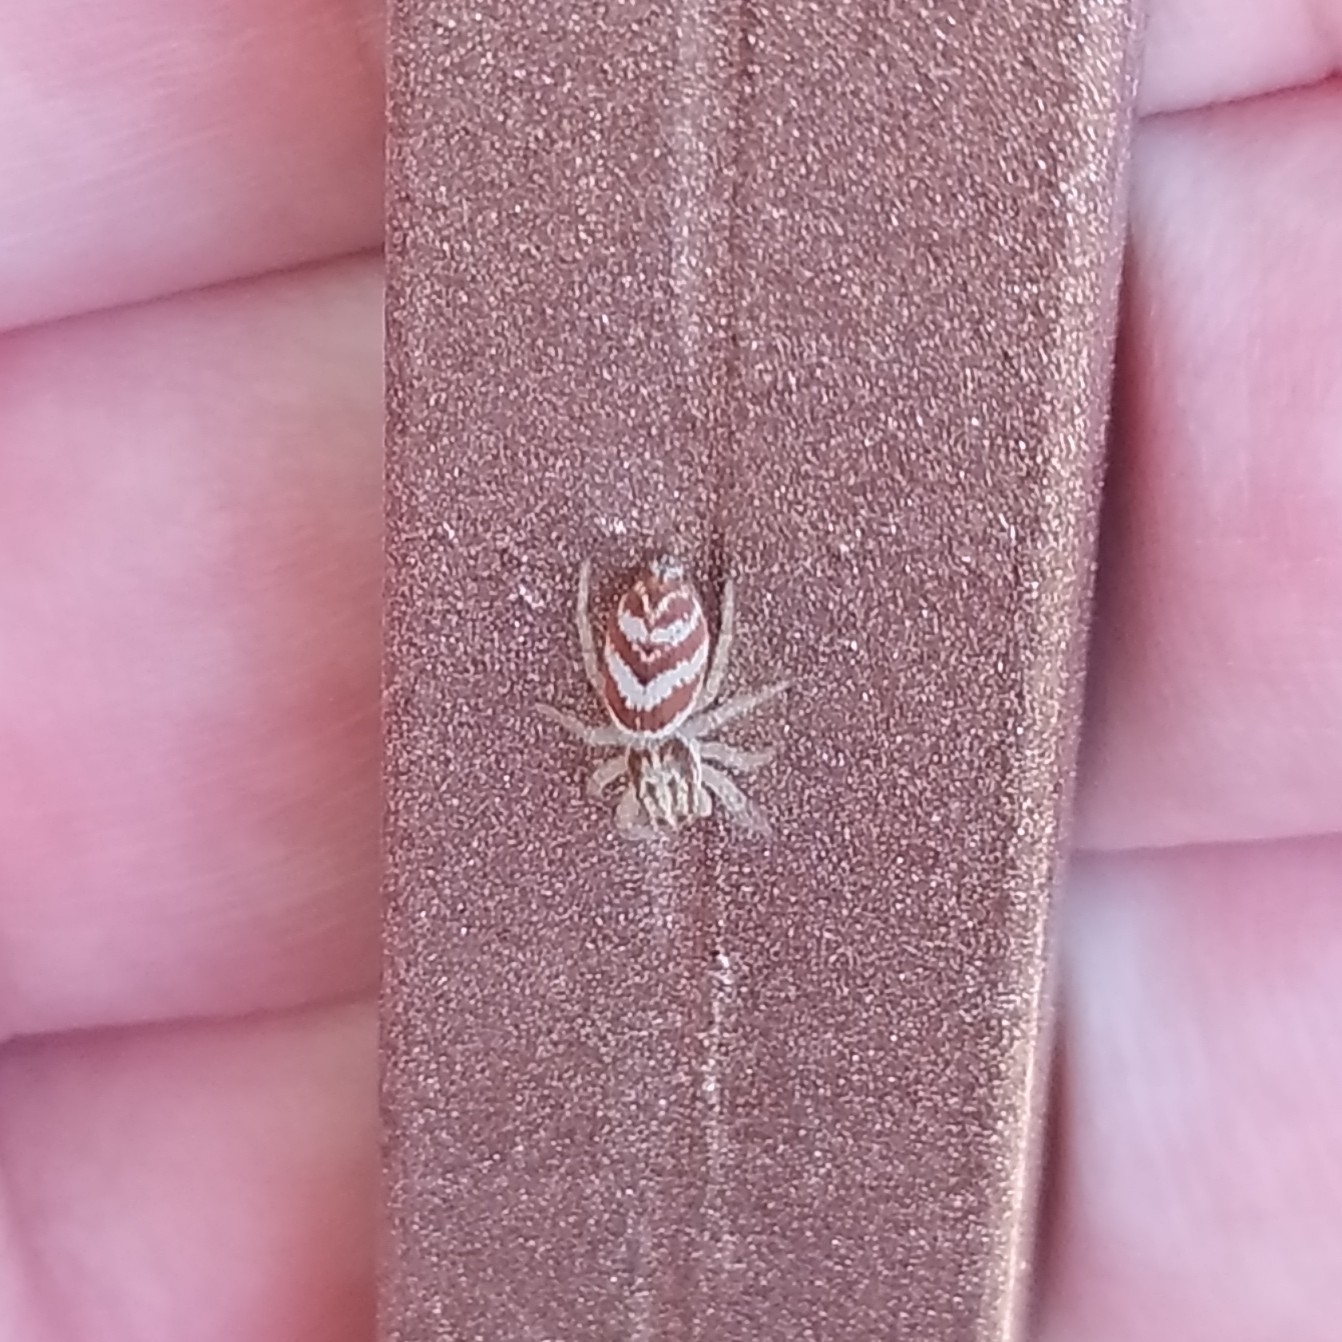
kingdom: Animalia
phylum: Arthropoda
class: Arachnida
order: Araneae
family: Salticidae
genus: Rudakius
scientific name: Rudakius cinctus
